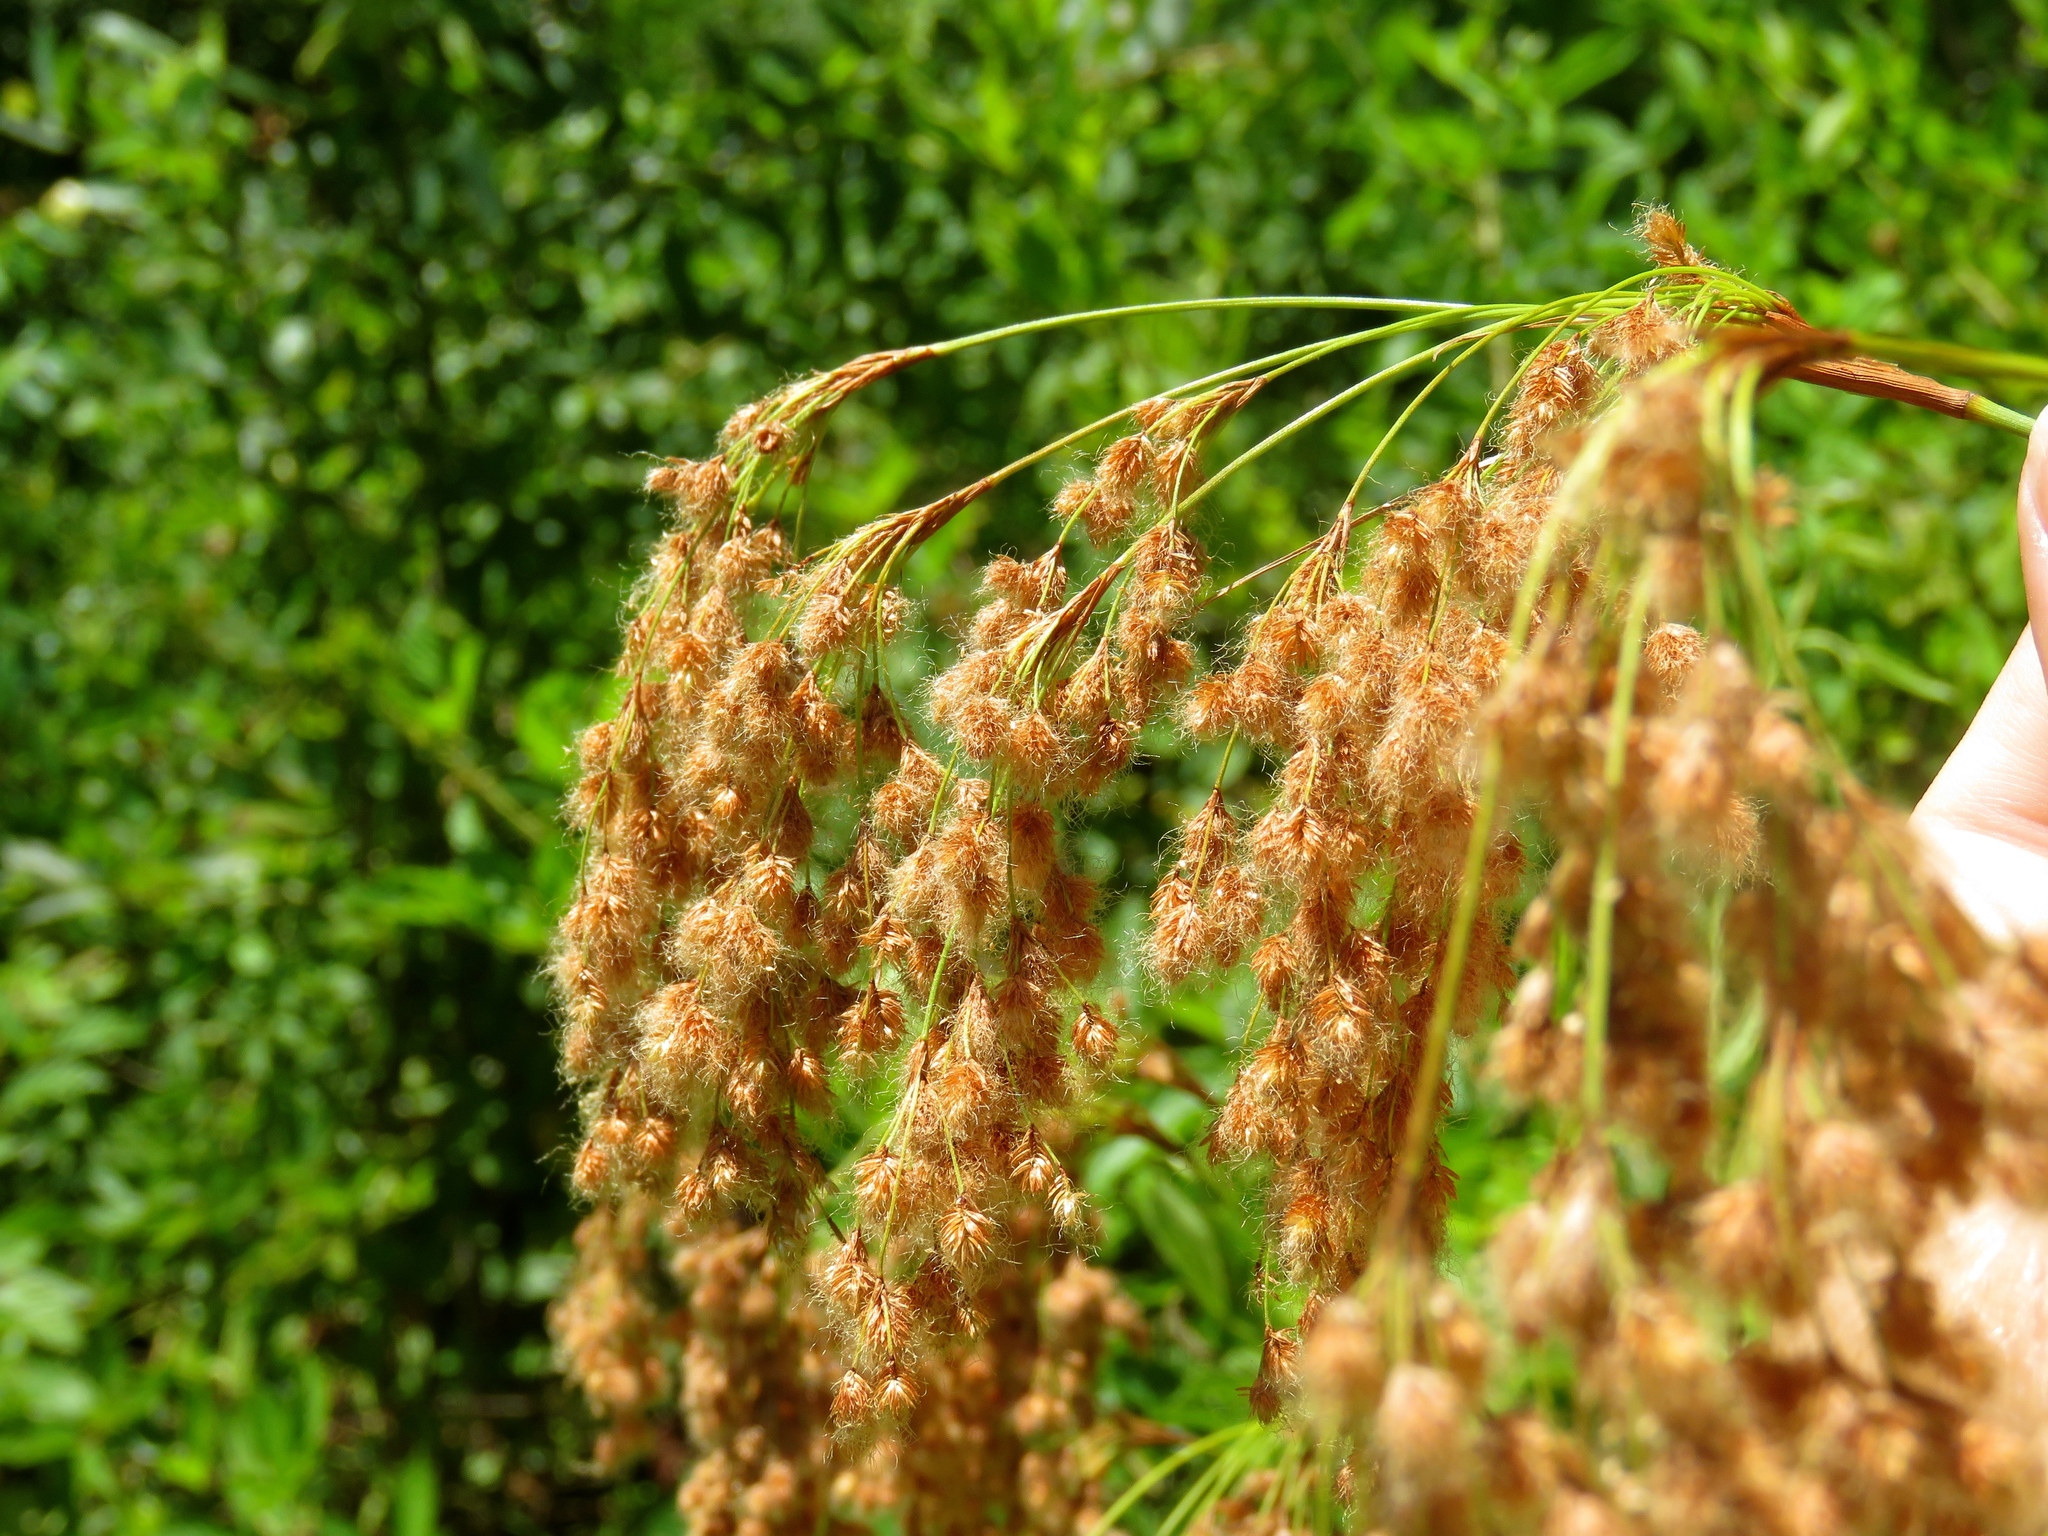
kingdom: Plantae
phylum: Tracheophyta
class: Liliopsida
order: Poales
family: Cyperaceae
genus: Scirpus
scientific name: Scirpus cyperinus
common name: Black-sheathed bulrush
